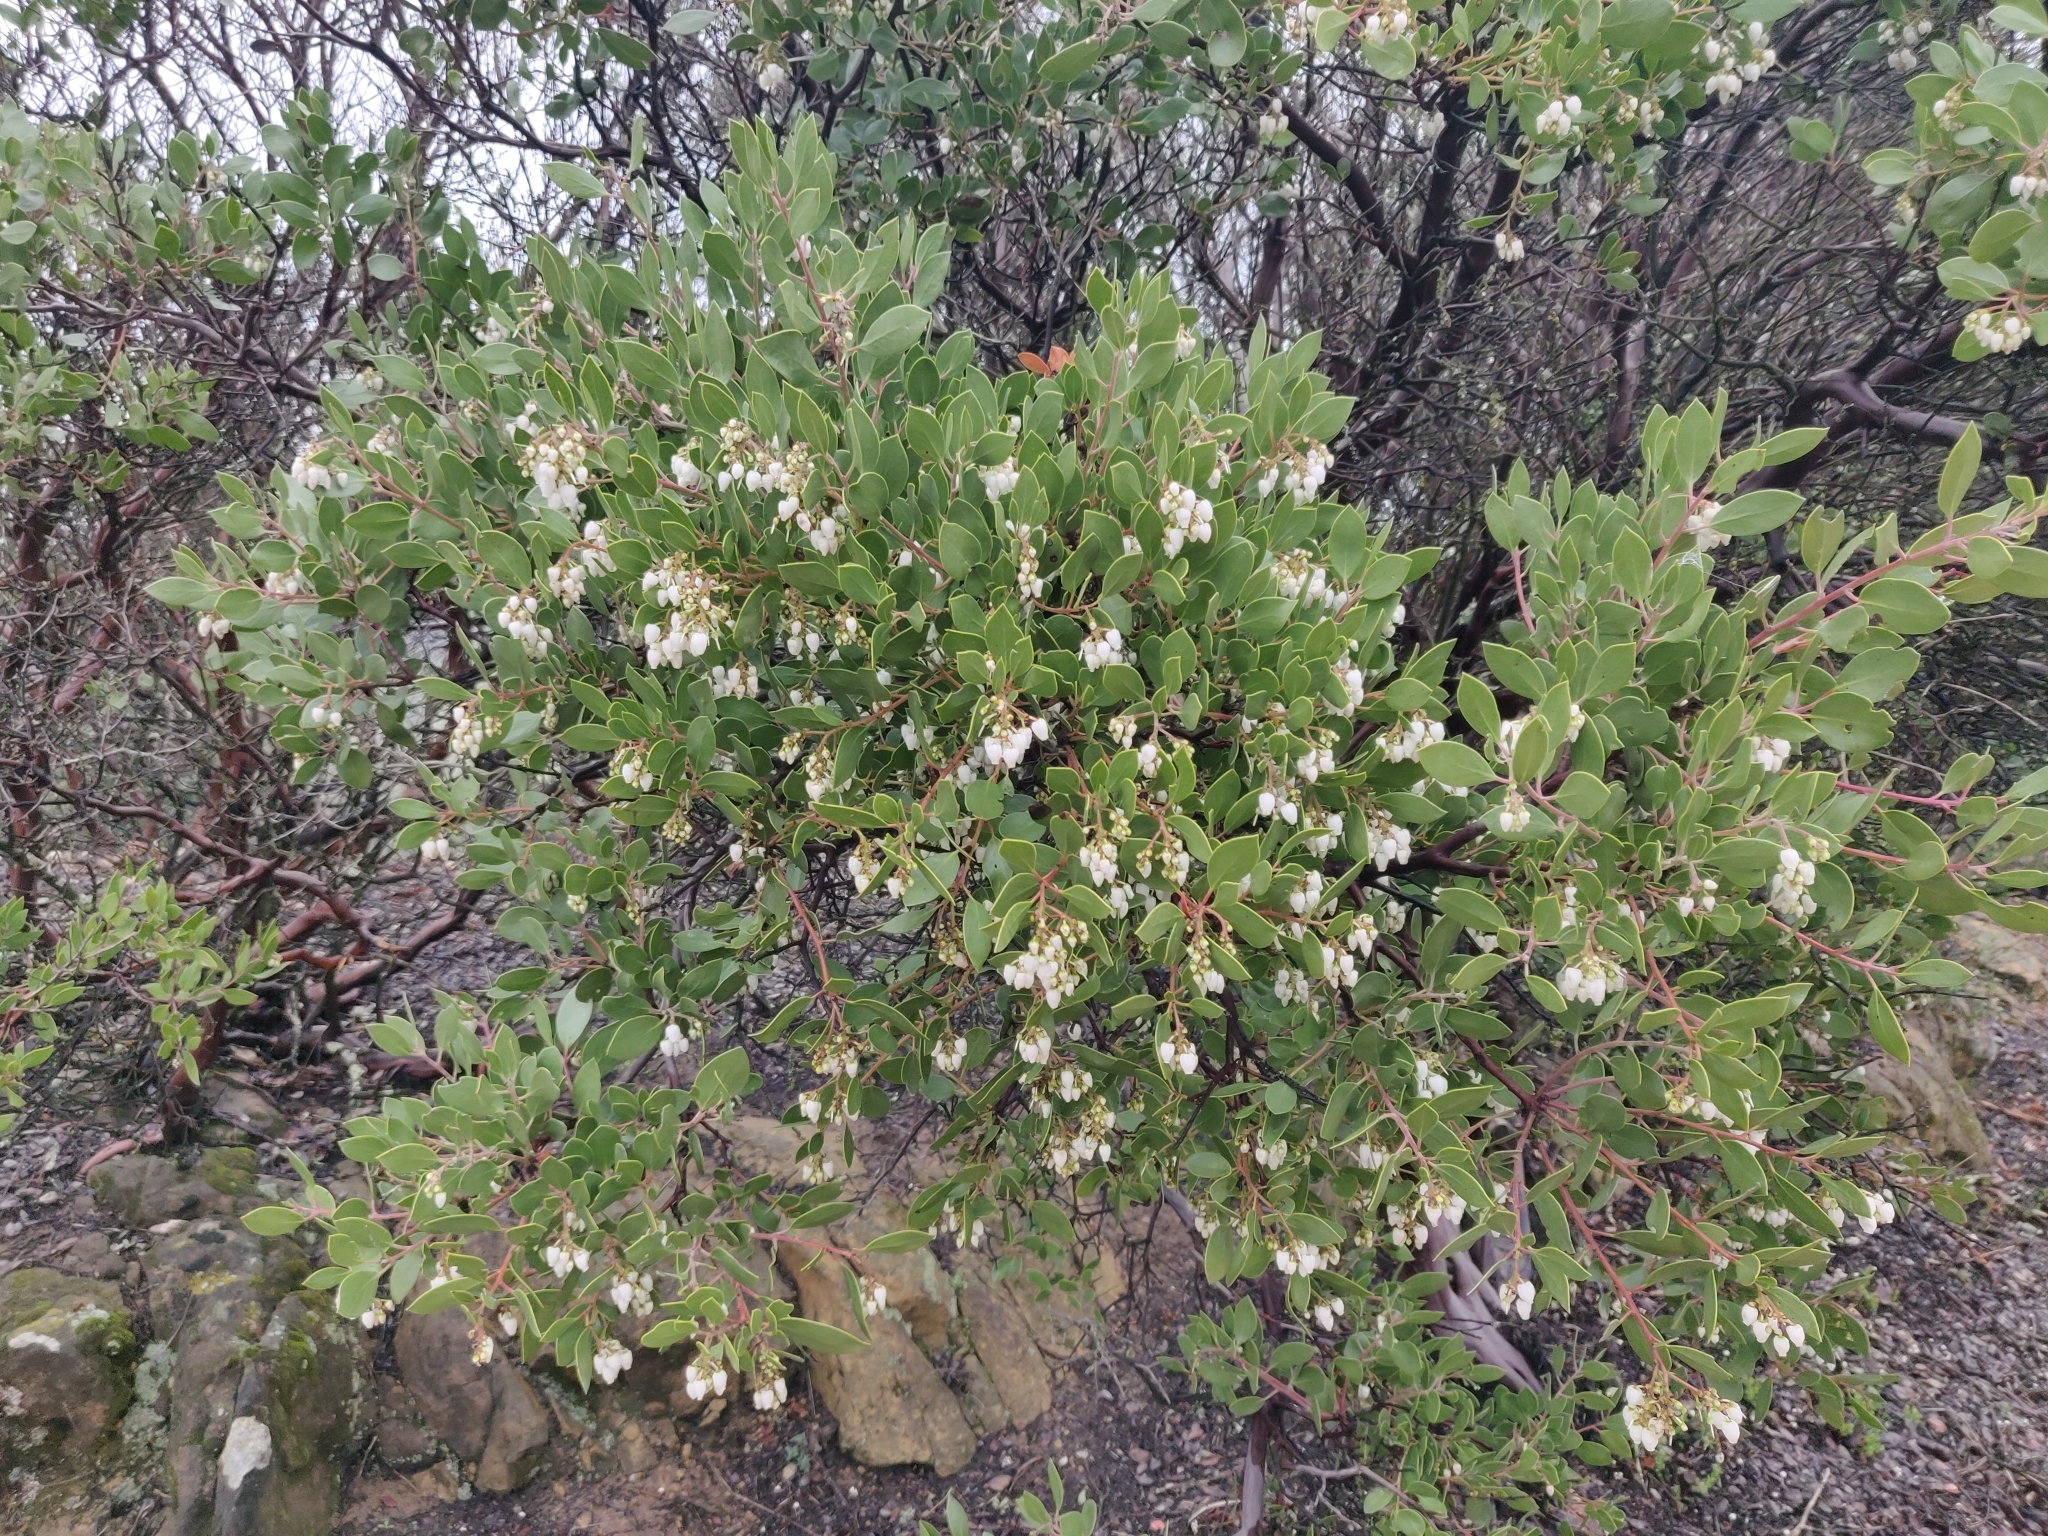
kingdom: Plantae
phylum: Tracheophyta
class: Magnoliopsida
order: Ericales
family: Ericaceae
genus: Arctostaphylos
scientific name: Arctostaphylos manzanita
